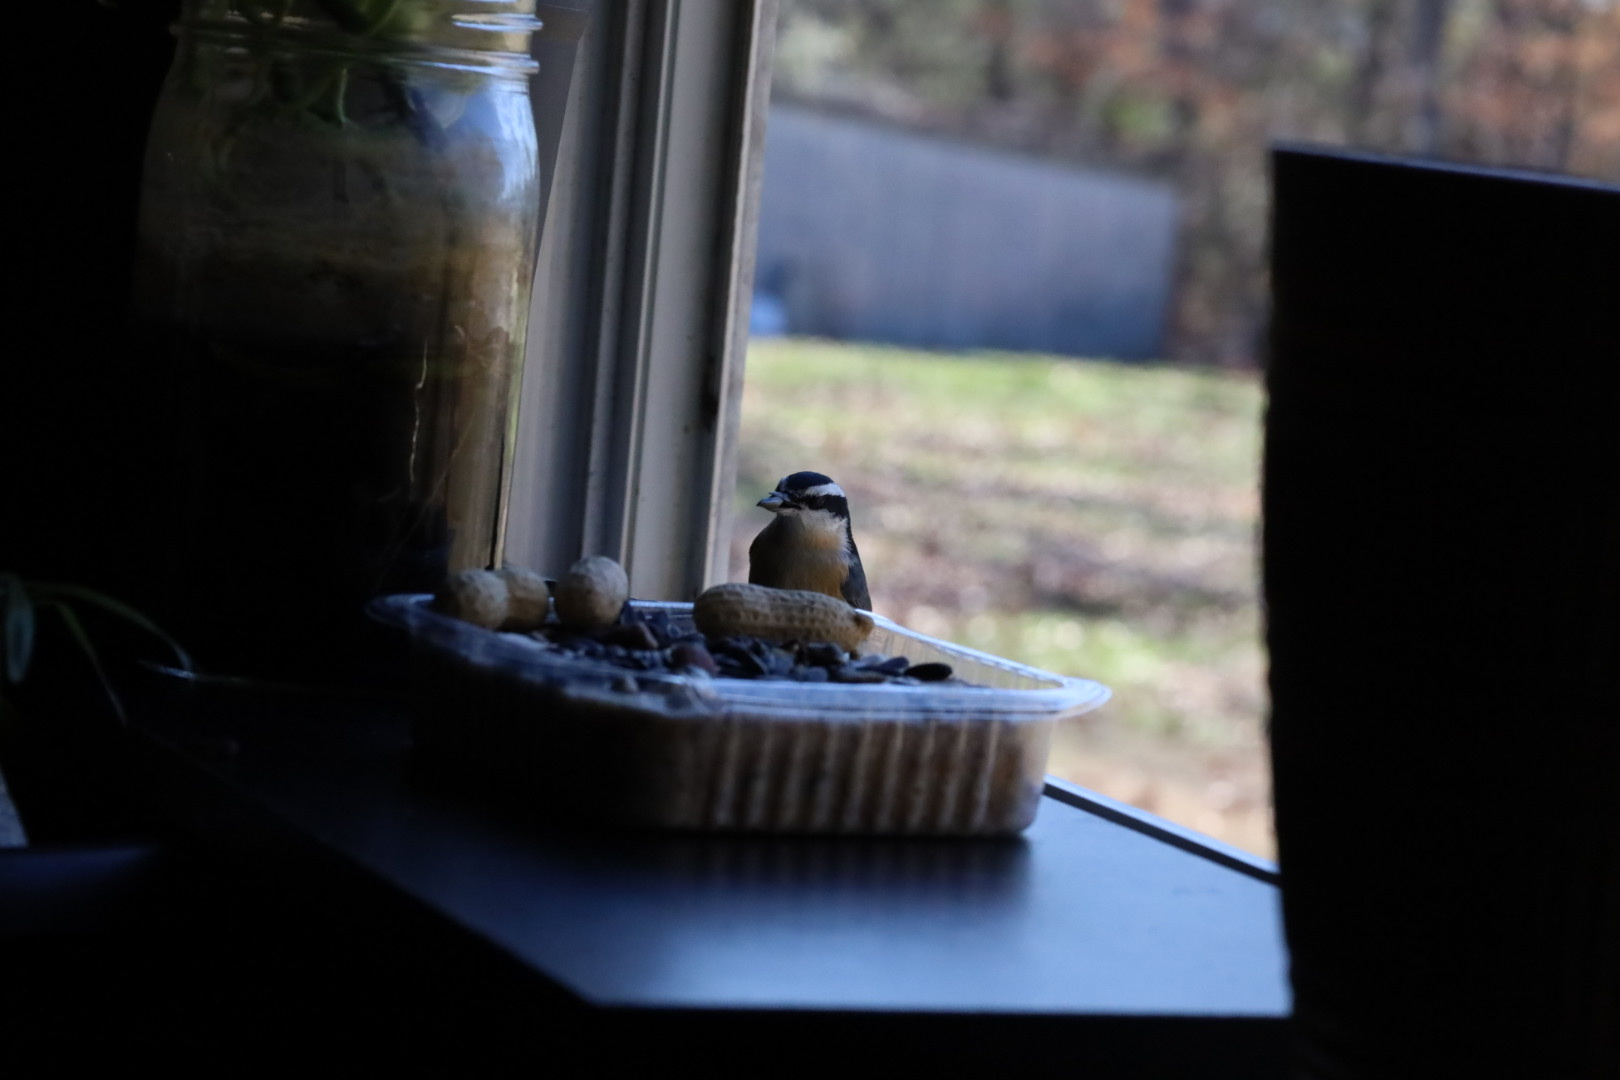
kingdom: Animalia
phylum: Chordata
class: Aves
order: Passeriformes
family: Sittidae
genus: Sitta
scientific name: Sitta canadensis
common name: Red-breasted nuthatch
